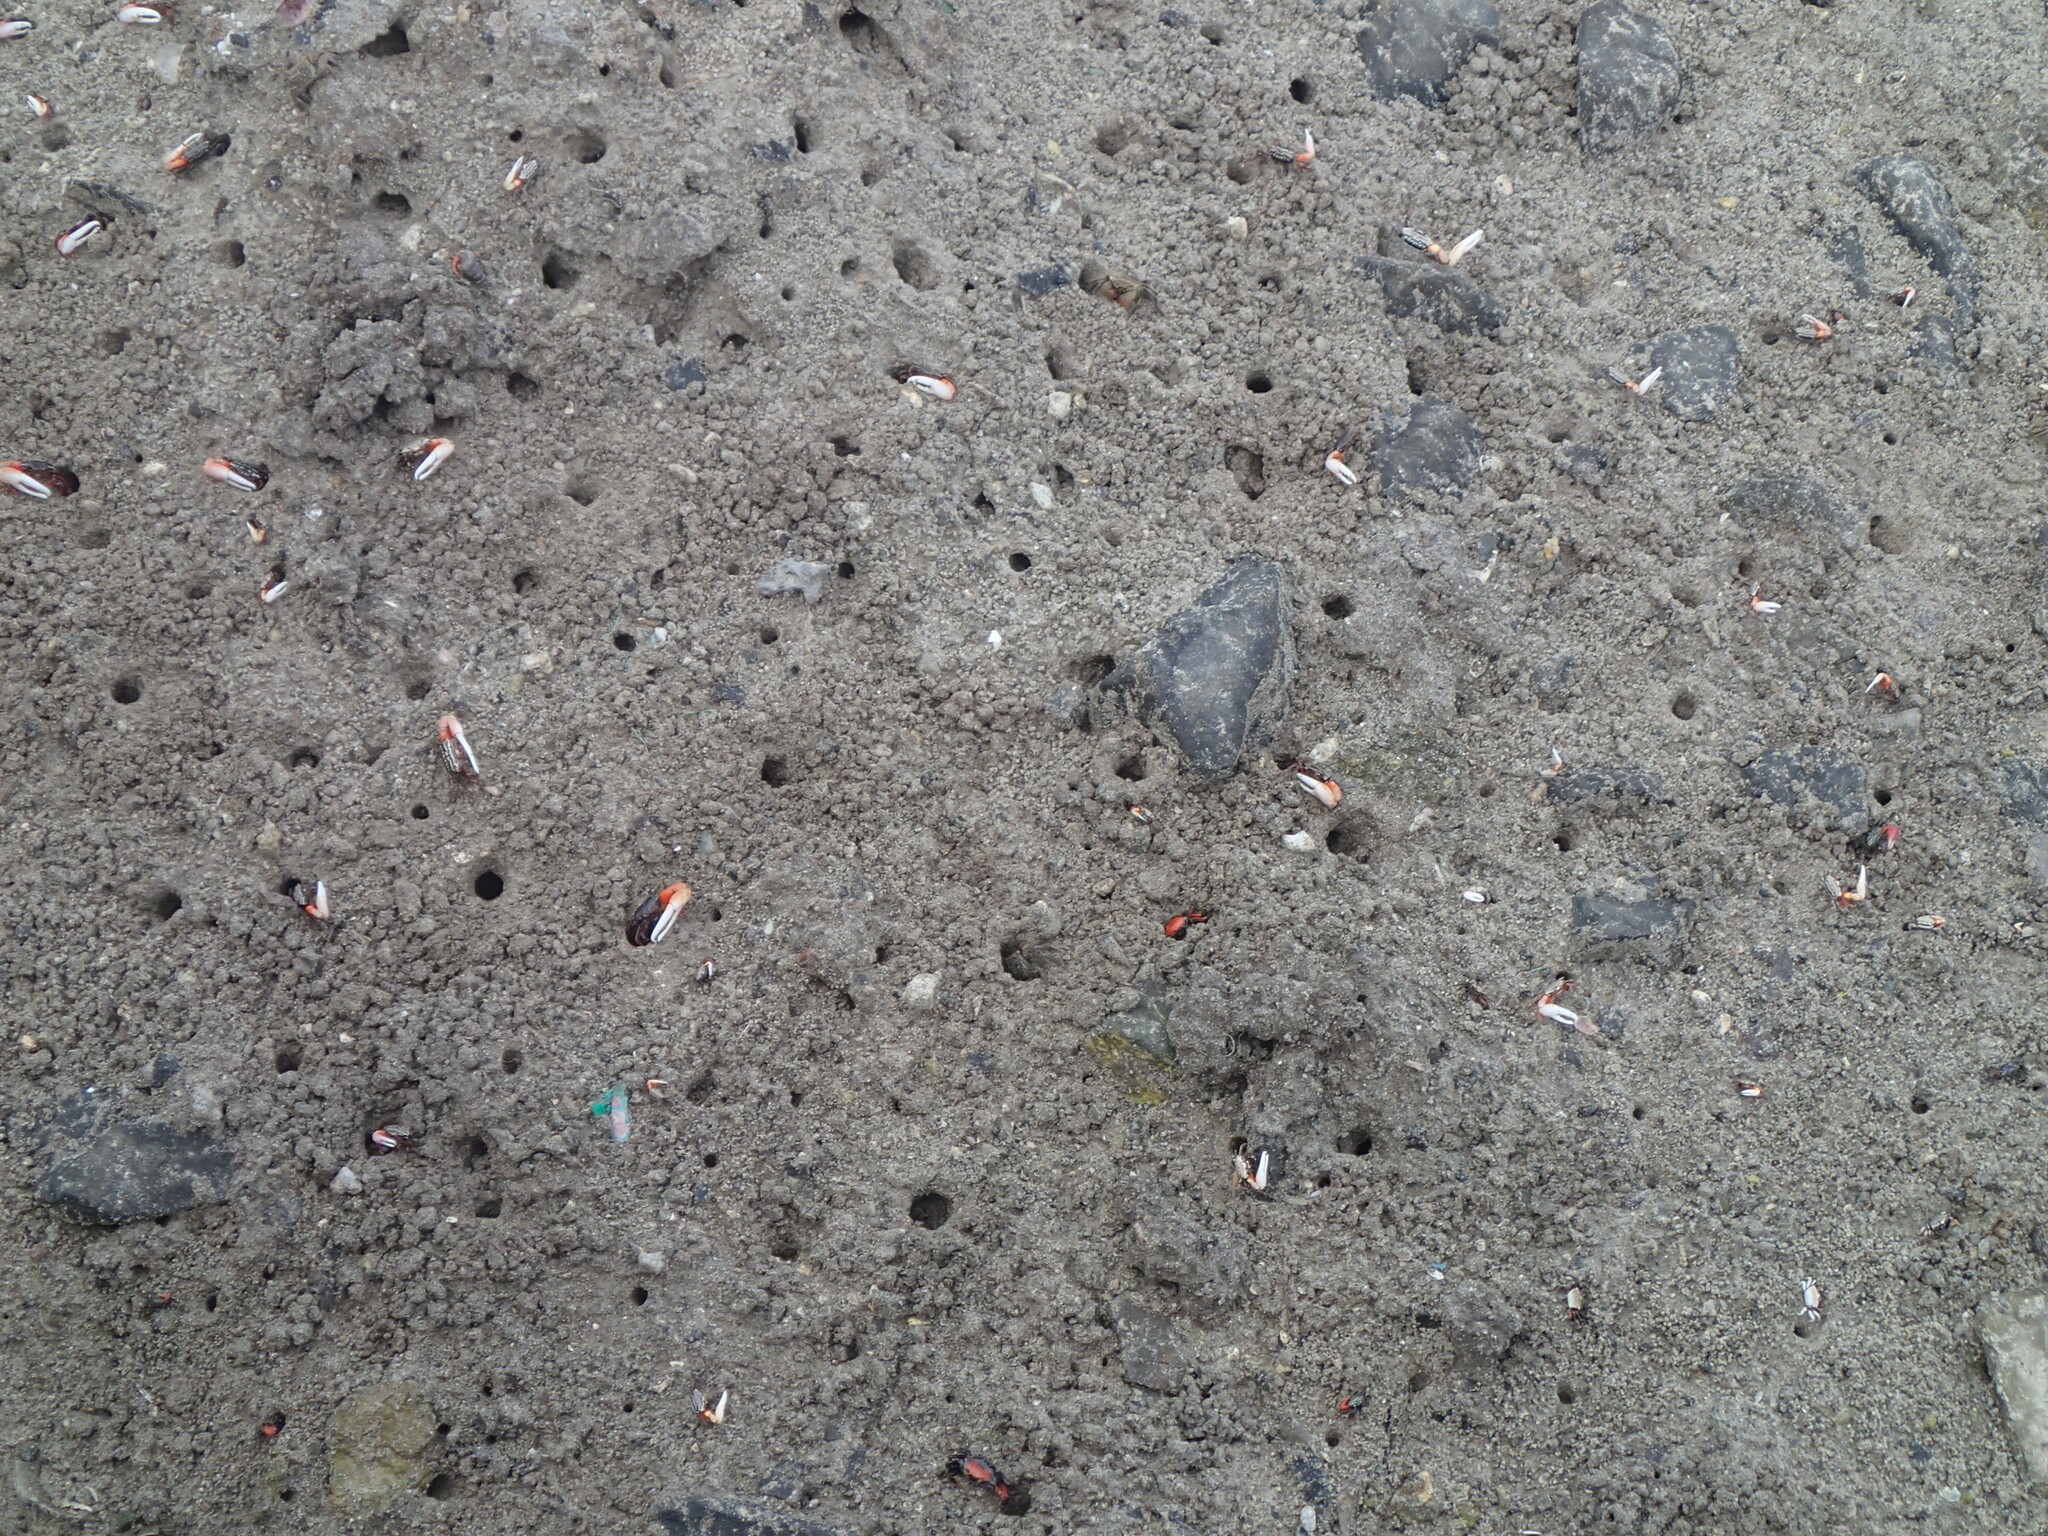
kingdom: Animalia
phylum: Arthropoda
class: Malacostraca
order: Decapoda
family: Ocypodidae
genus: Austruca
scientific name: Austruca annulipes
